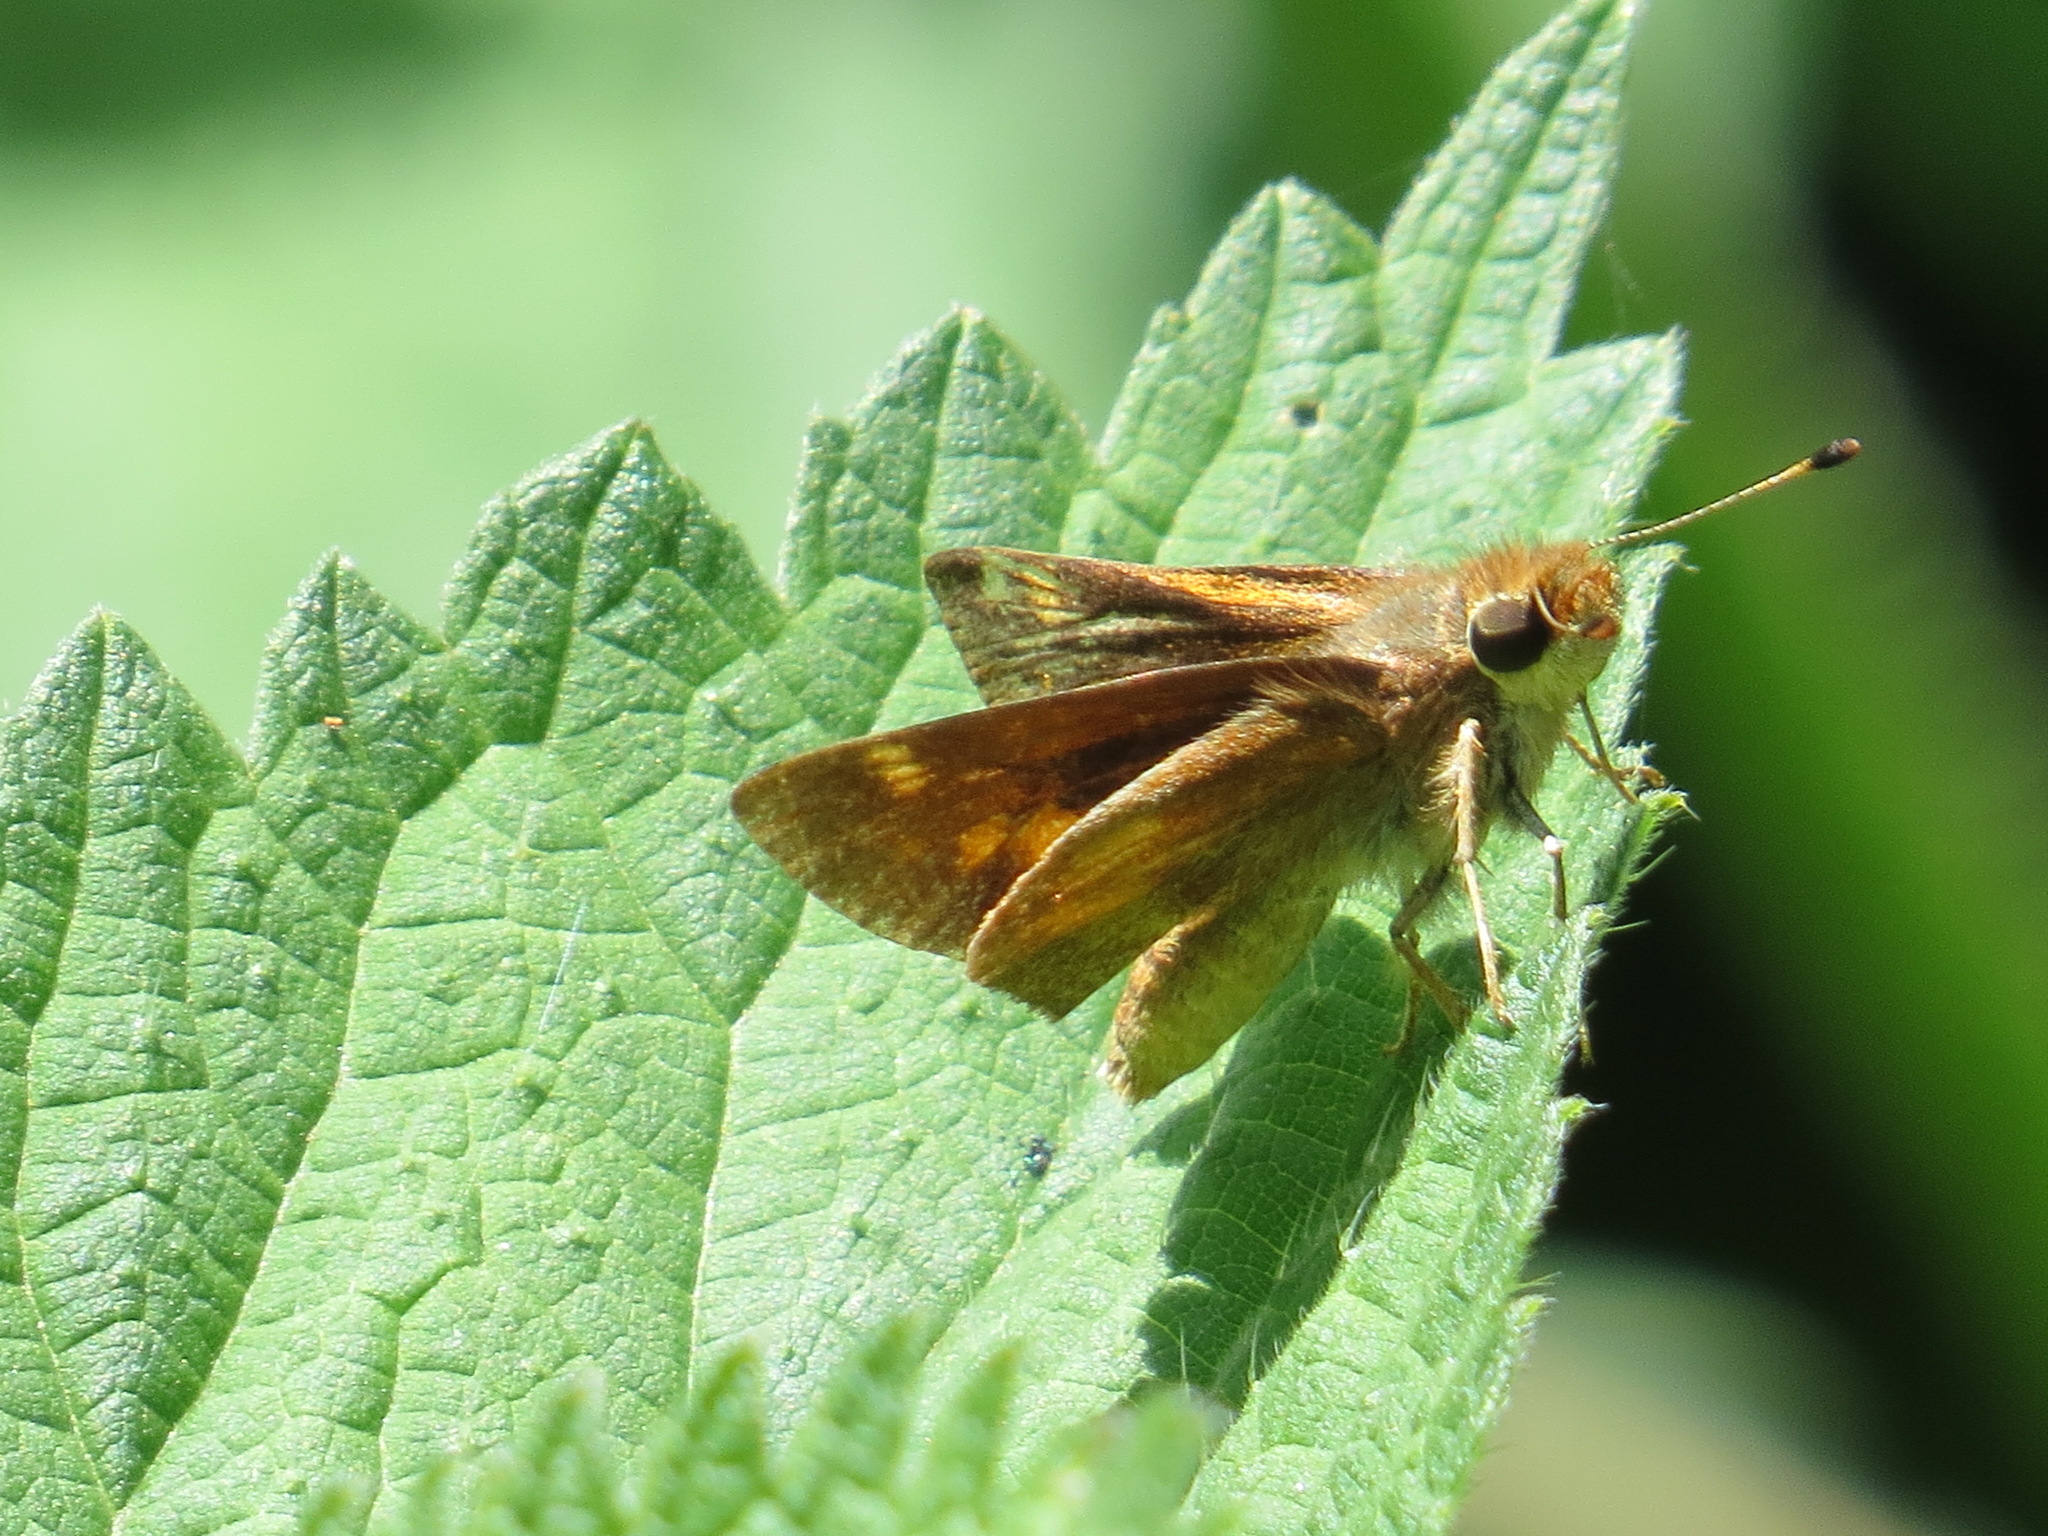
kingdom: Animalia
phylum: Arthropoda
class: Insecta
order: Lepidoptera
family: Hesperiidae
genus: Lon
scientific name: Lon melane
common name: Umber skipper
